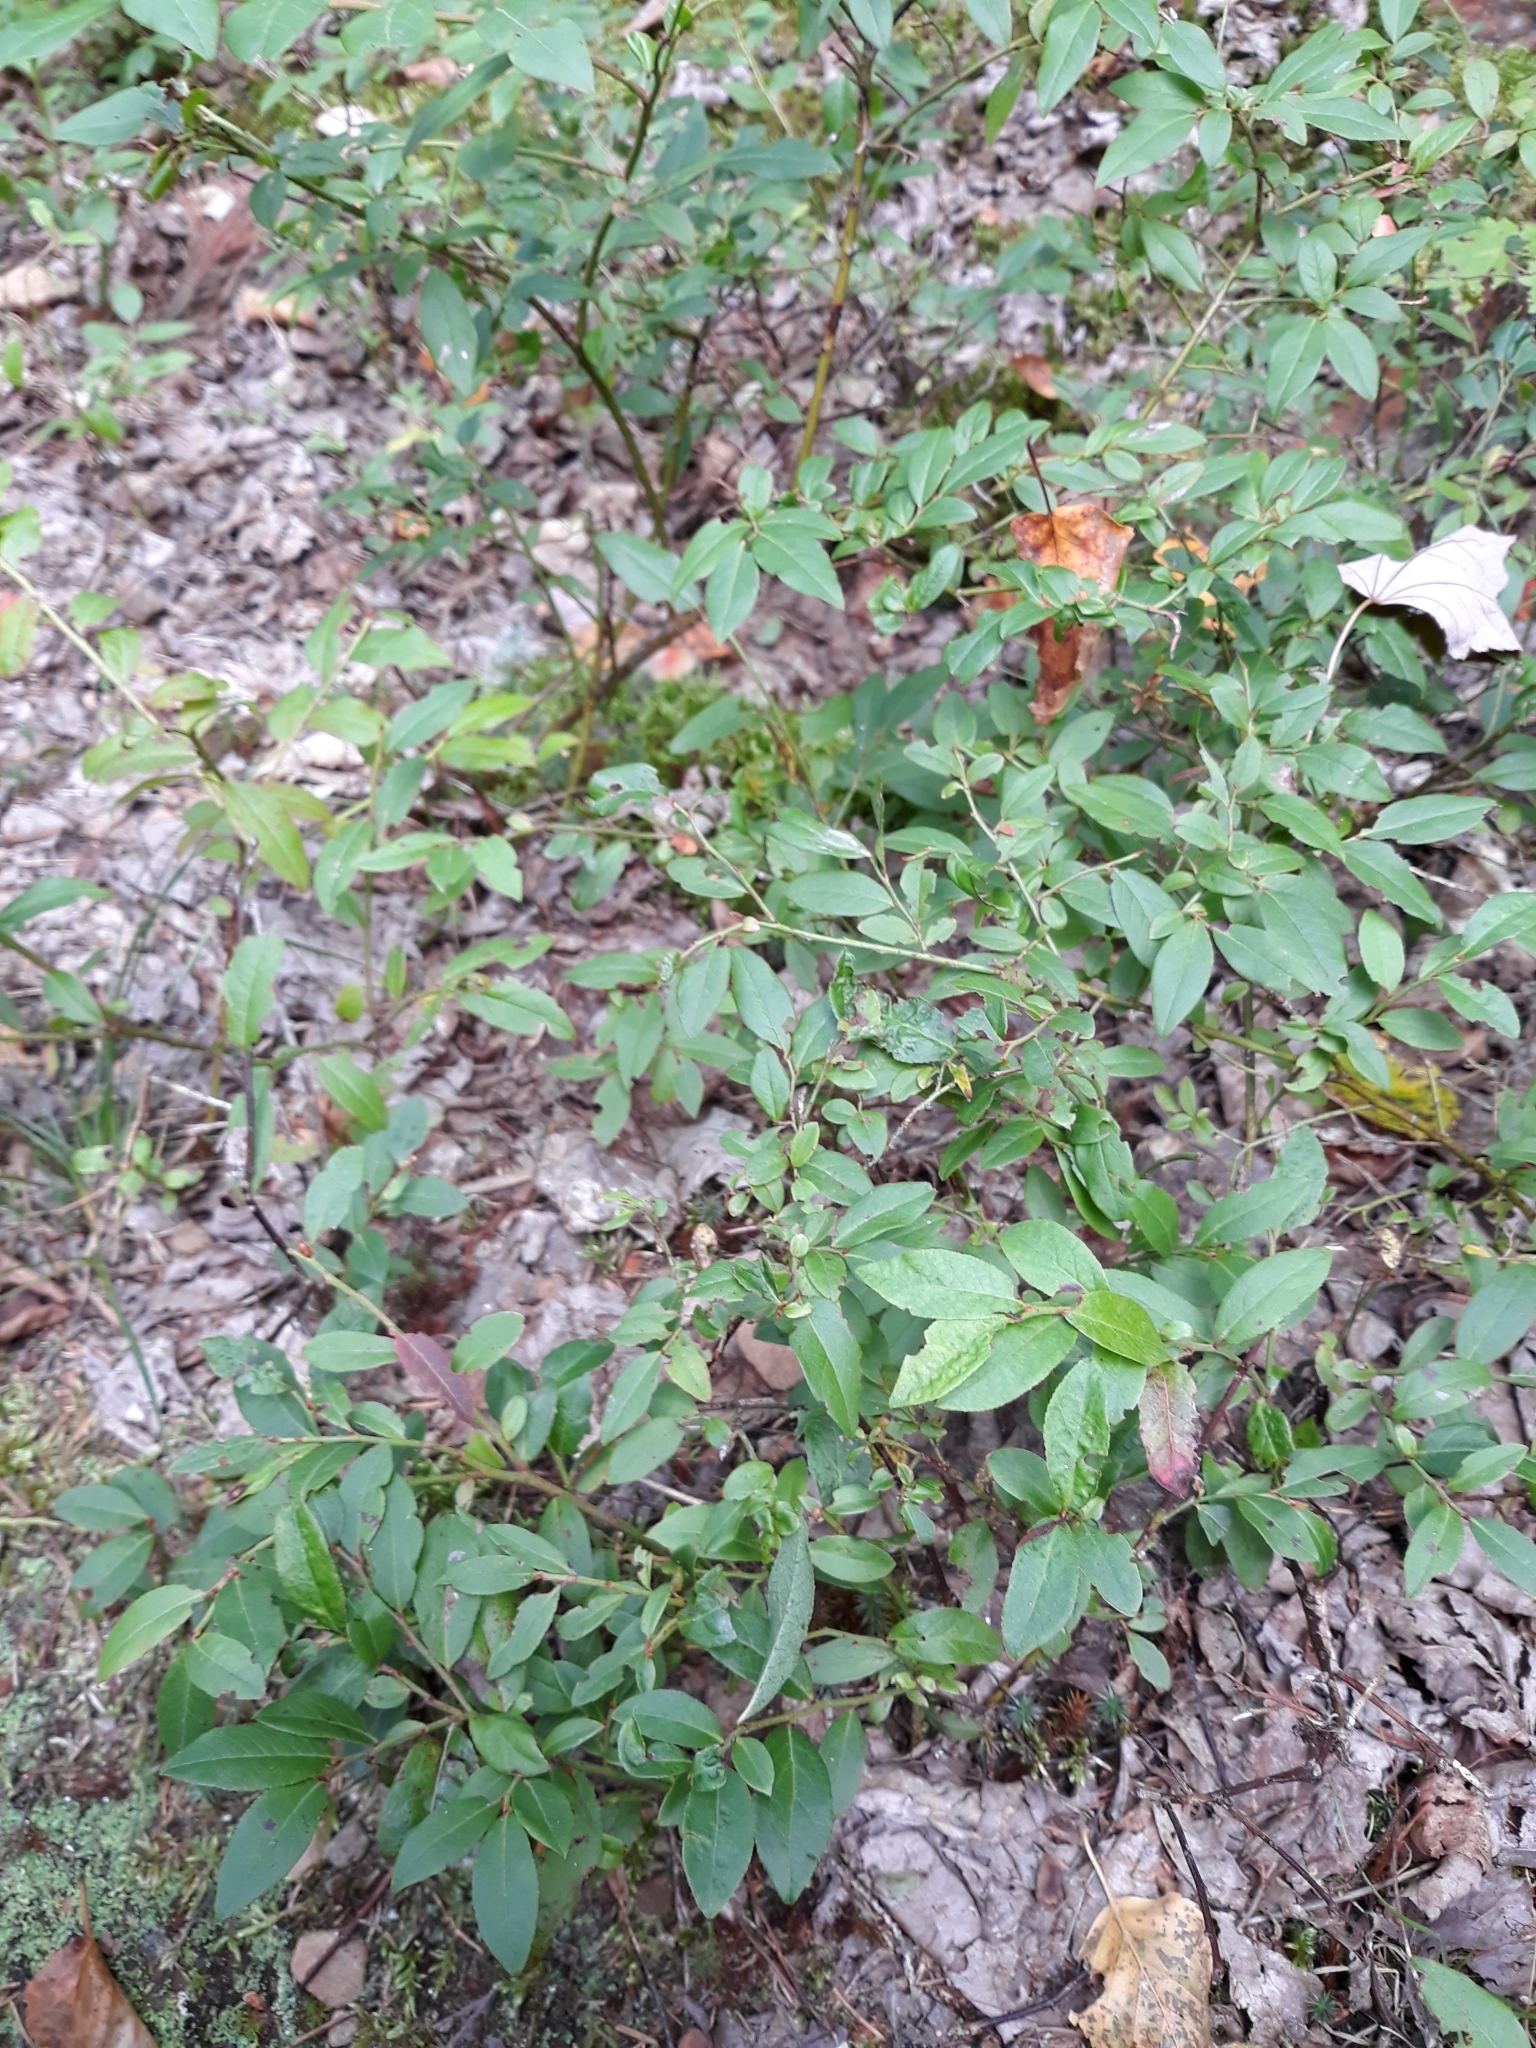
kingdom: Plantae
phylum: Tracheophyta
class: Magnoliopsida
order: Ericales
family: Ericaceae
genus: Vaccinium
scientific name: Vaccinium angustifolium
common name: Early lowbush blueberry
